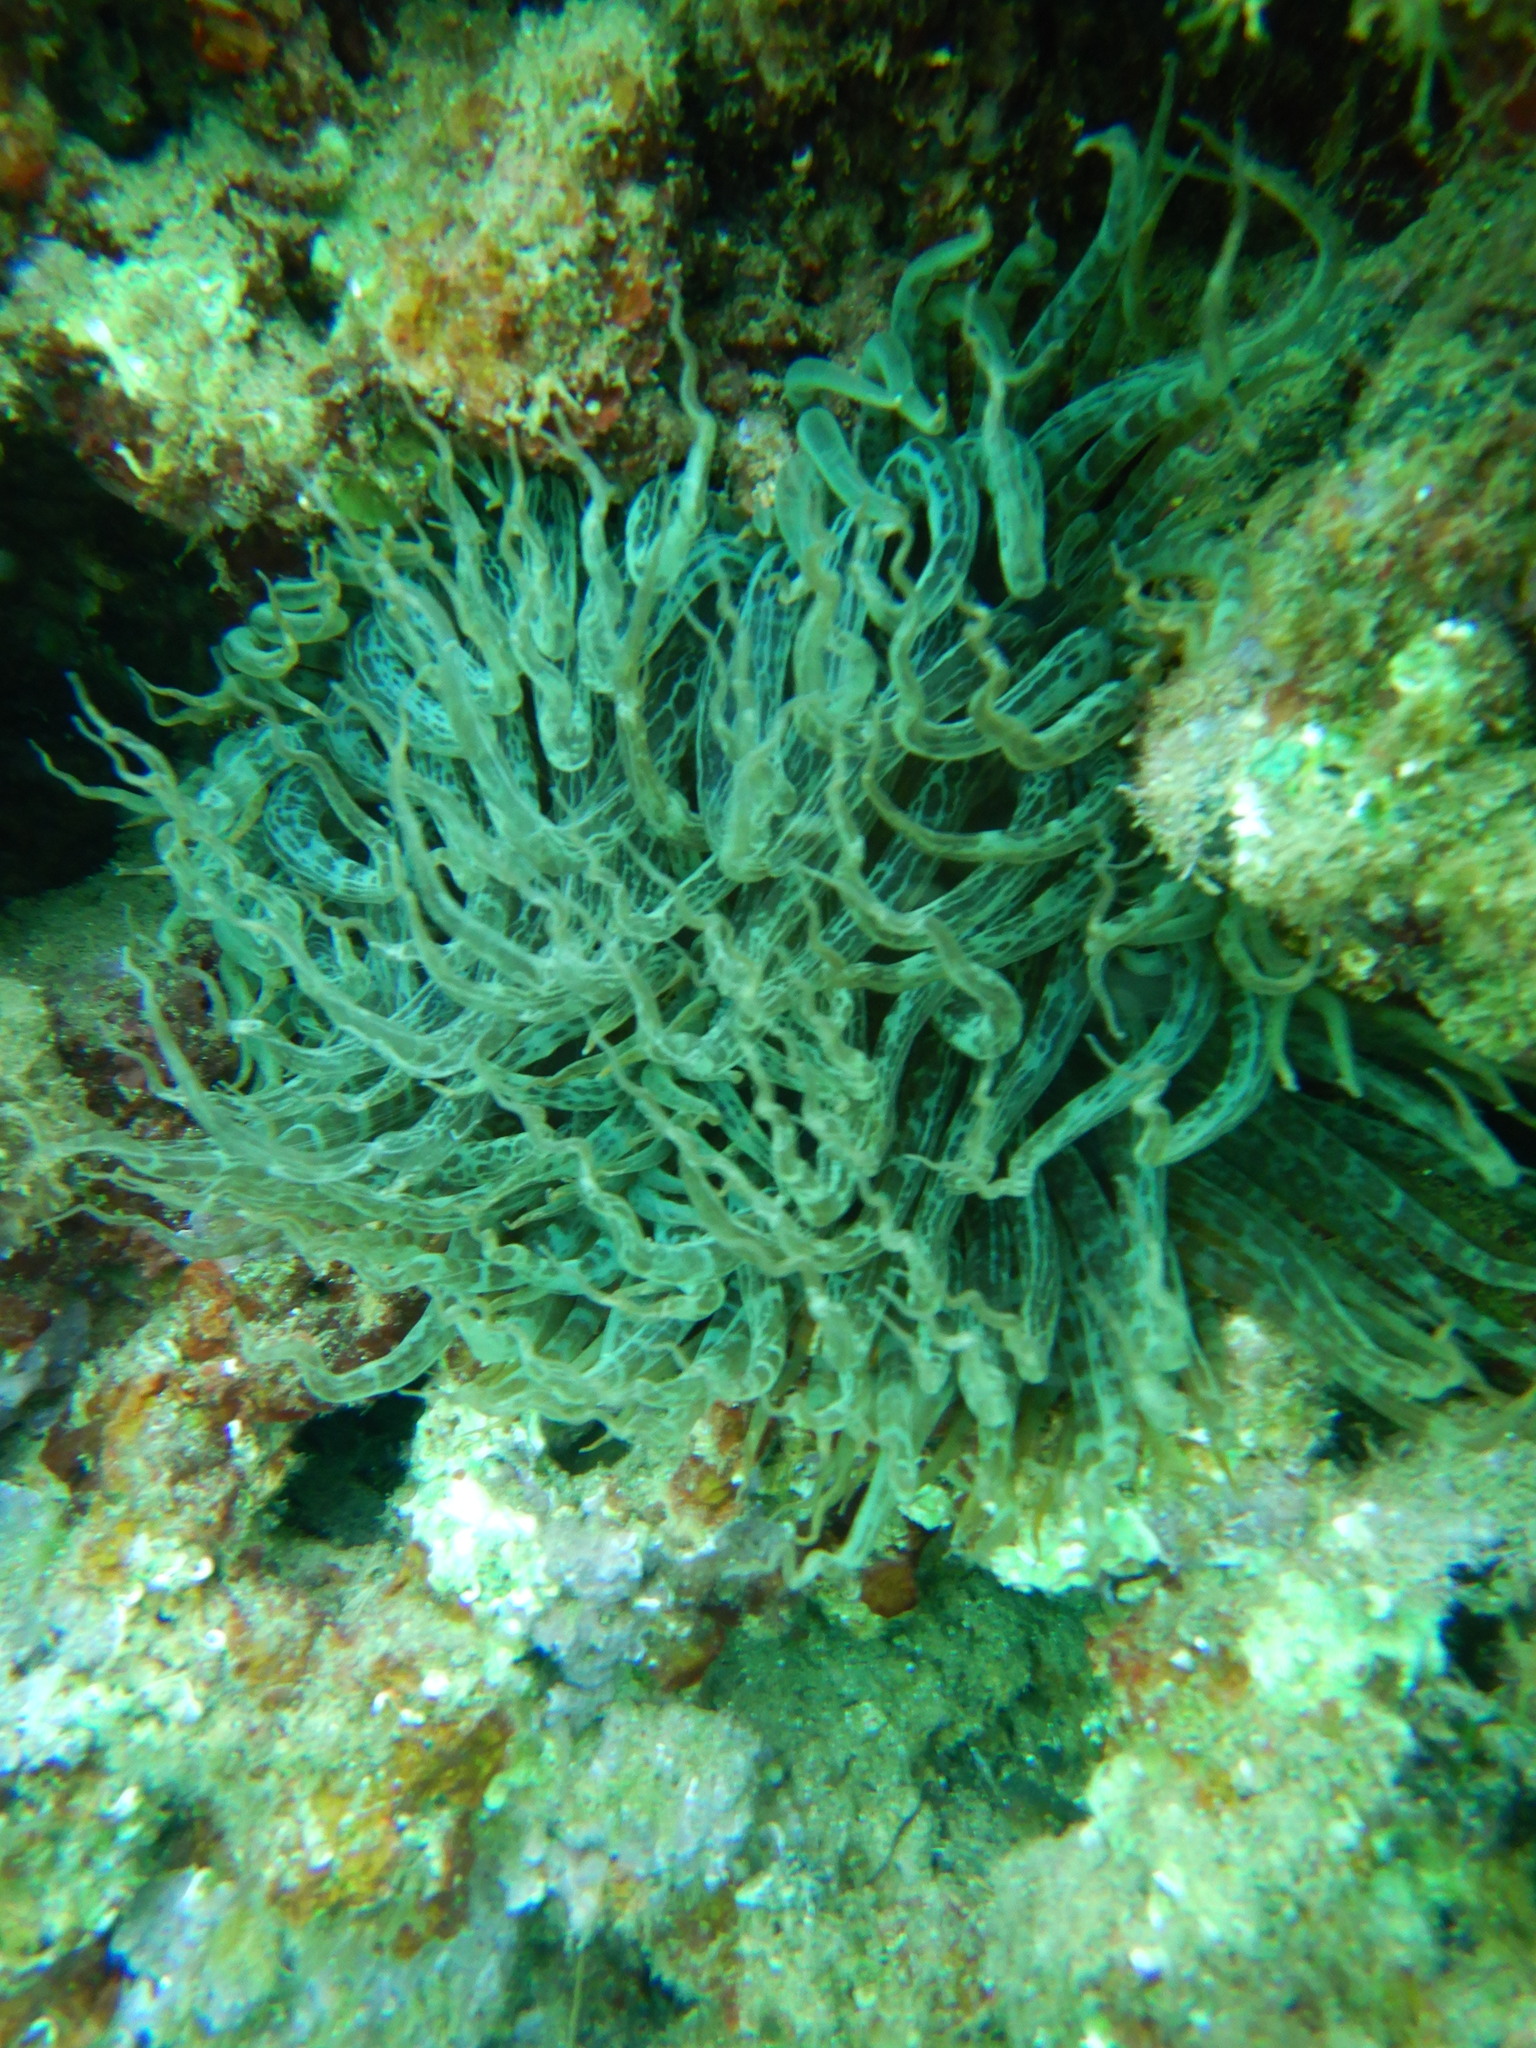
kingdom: Animalia
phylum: Cnidaria
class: Anthozoa
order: Actiniaria
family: Aiptasiidae
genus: Aiptasia
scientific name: Aiptasia mutabilis
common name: Trumpet anemone
